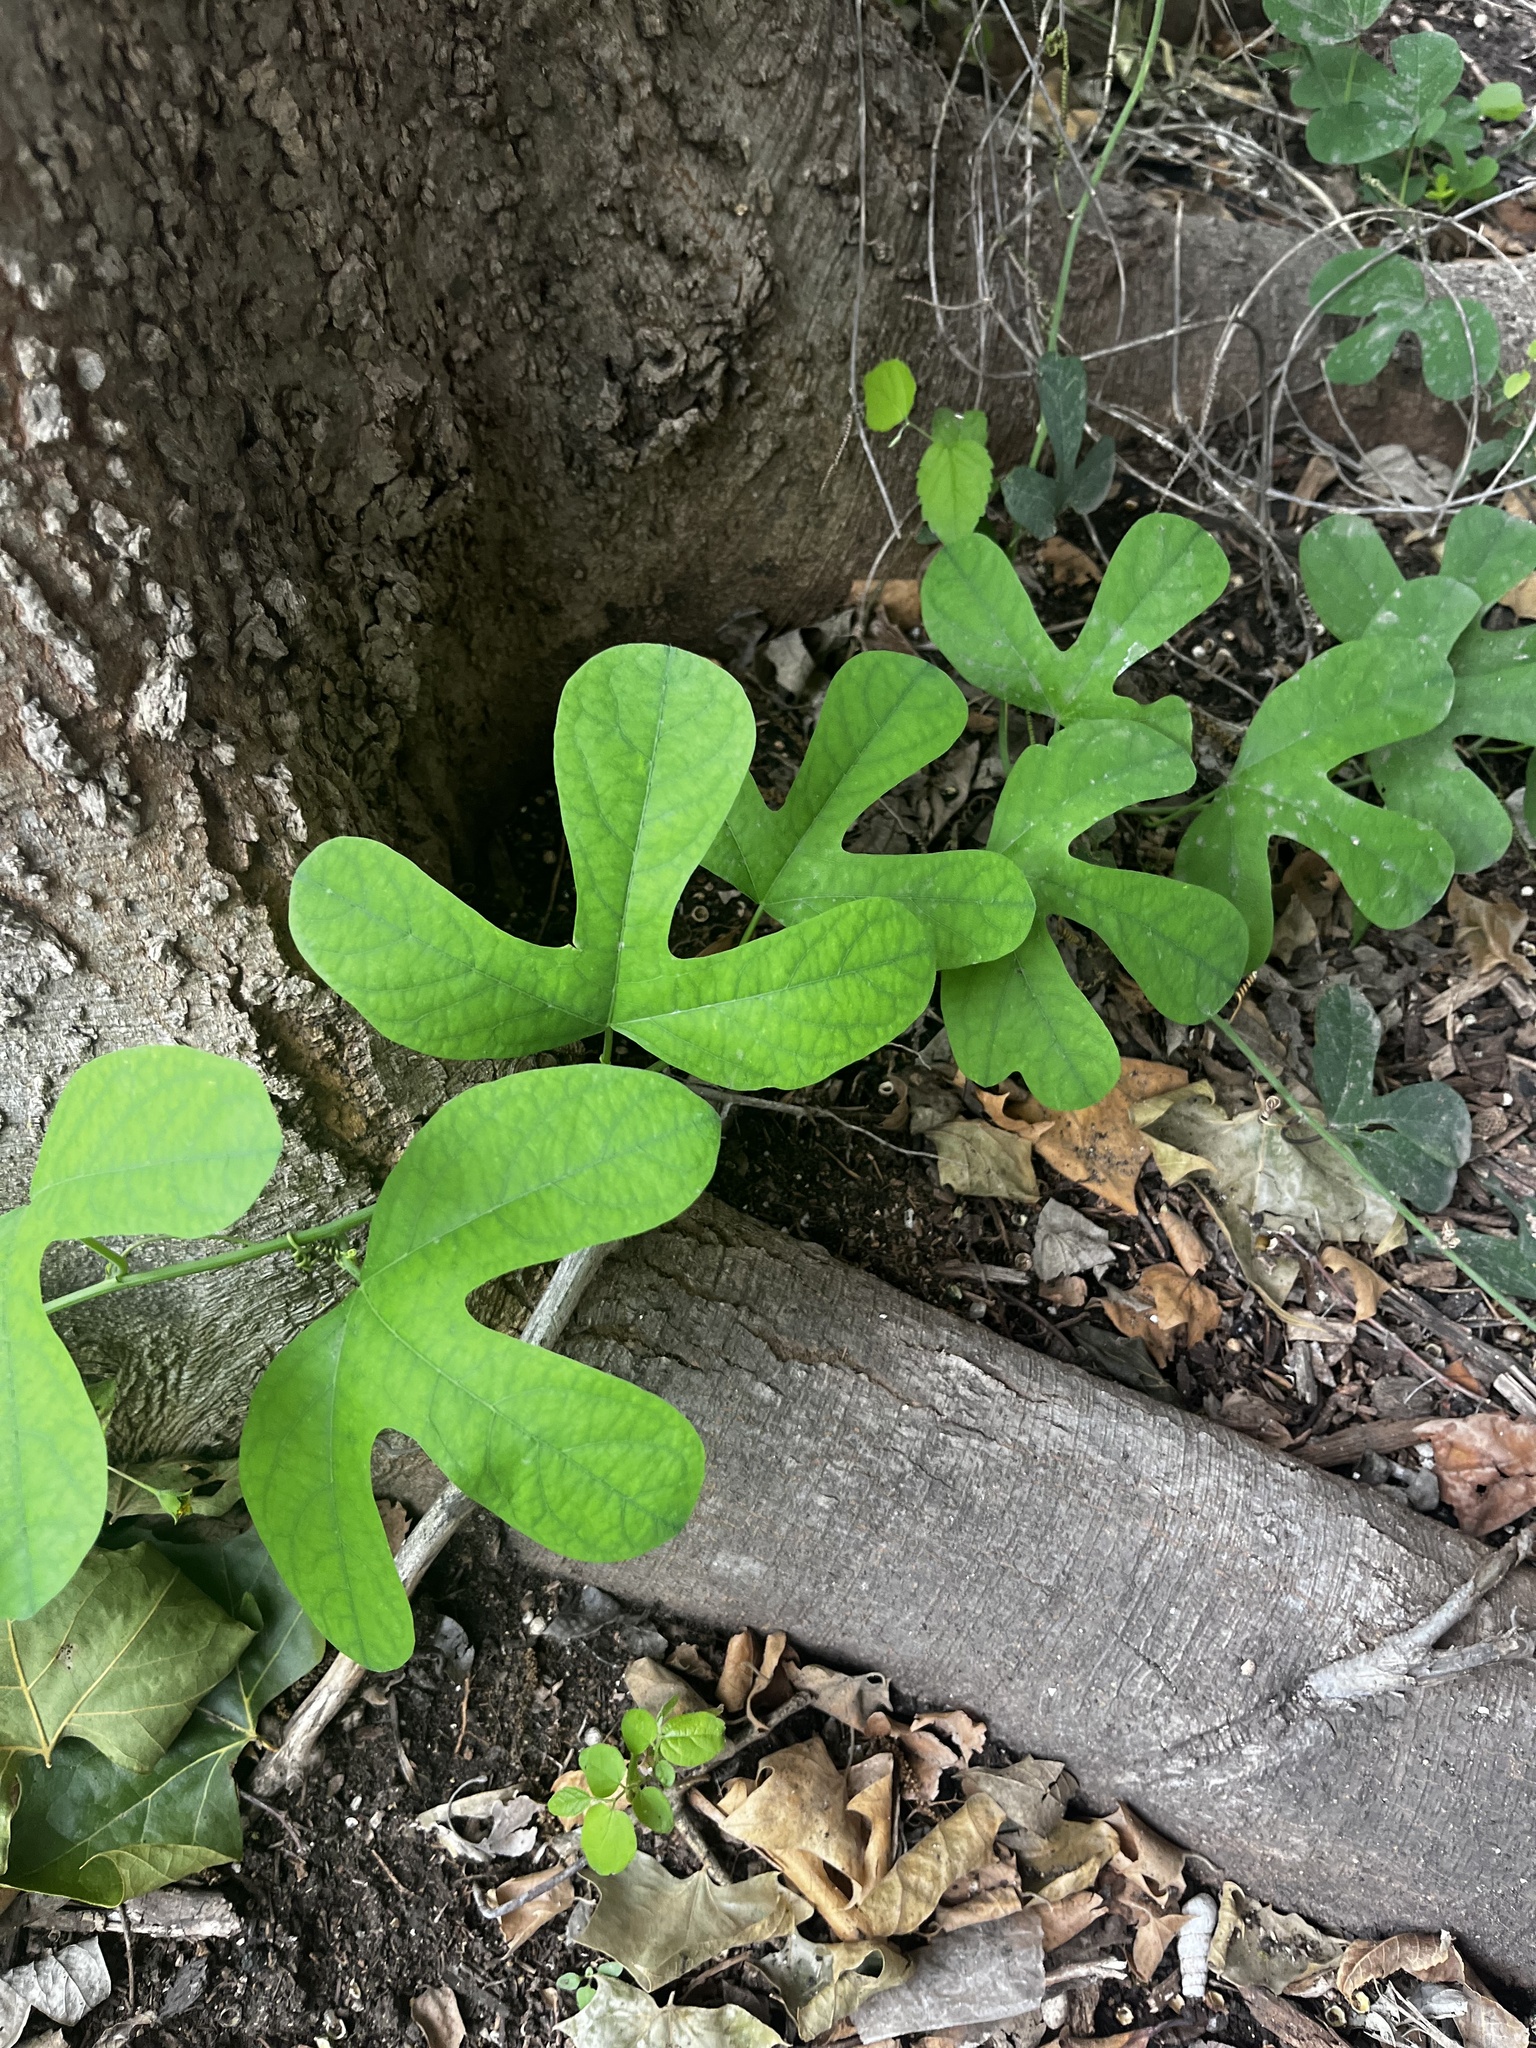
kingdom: Plantae
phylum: Tracheophyta
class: Magnoliopsida
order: Malpighiales
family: Passifloraceae
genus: Passiflora
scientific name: Passiflora affinis
